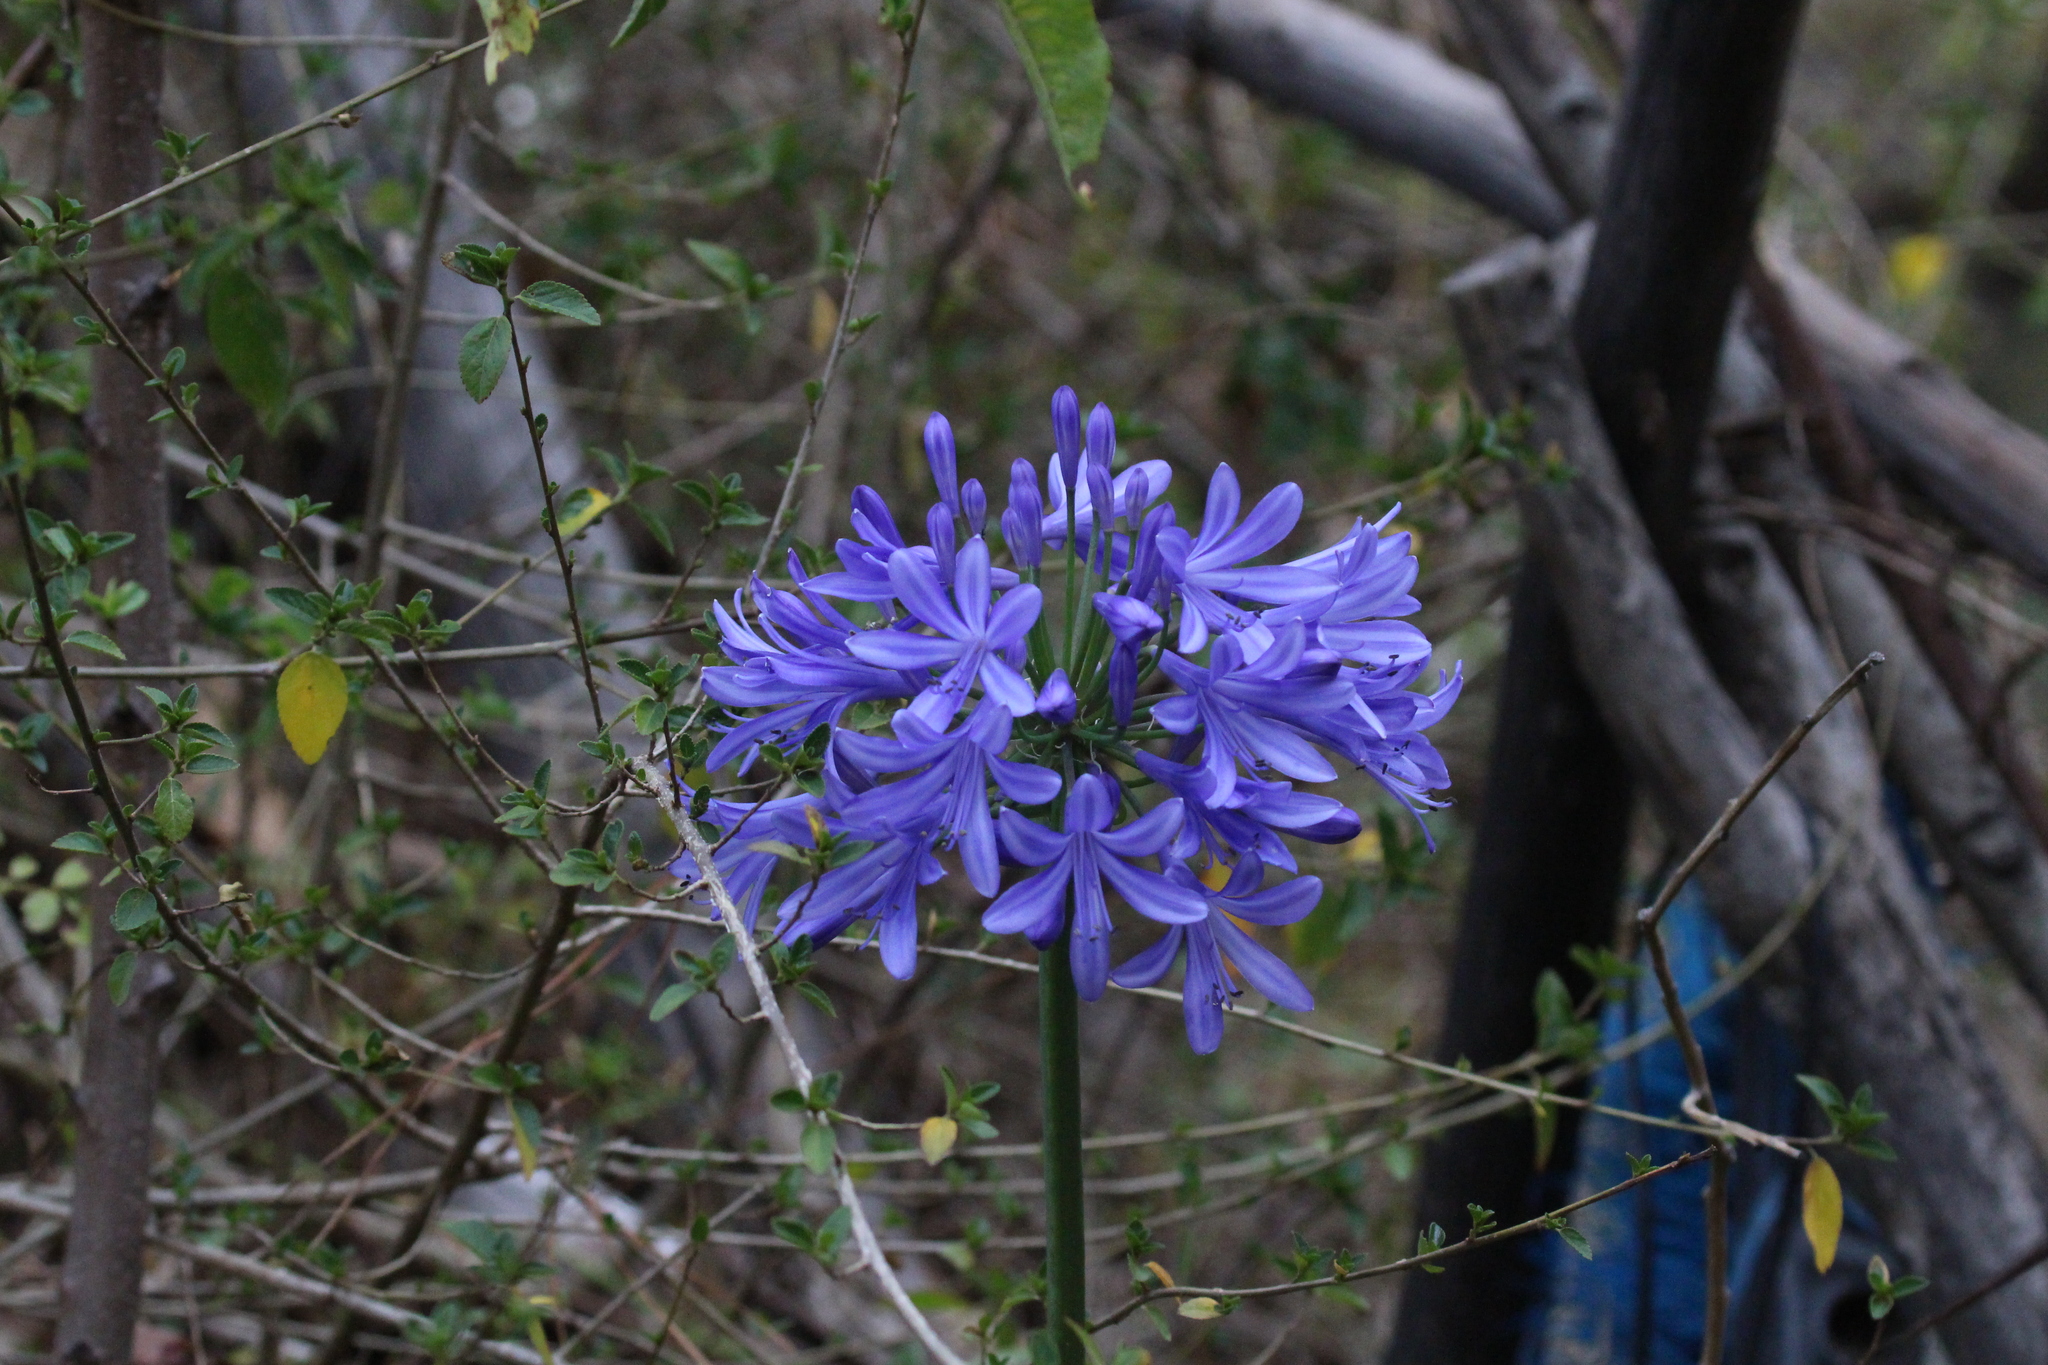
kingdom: Plantae
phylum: Tracheophyta
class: Liliopsida
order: Asparagales
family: Amaryllidaceae
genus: Agapanthus
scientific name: Agapanthus praecox
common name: African-lily
